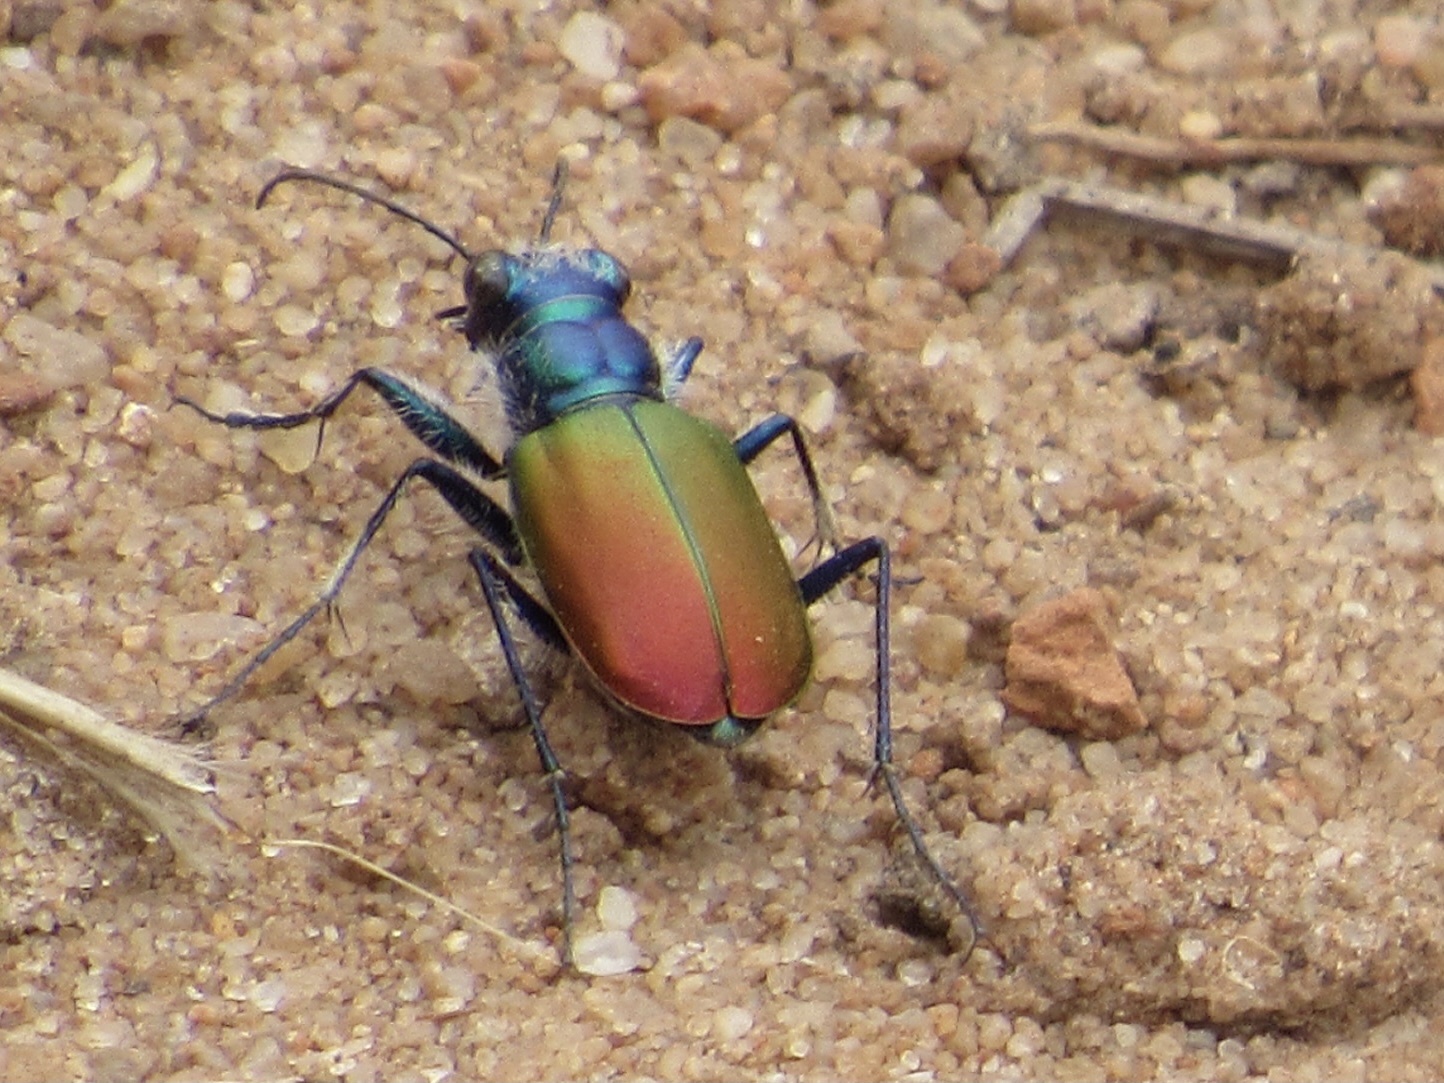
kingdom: Animalia
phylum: Arthropoda
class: Insecta
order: Coleoptera
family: Carabidae
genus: Cicindela
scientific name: Cicindela scutellaris
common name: Festive tiger beetle
